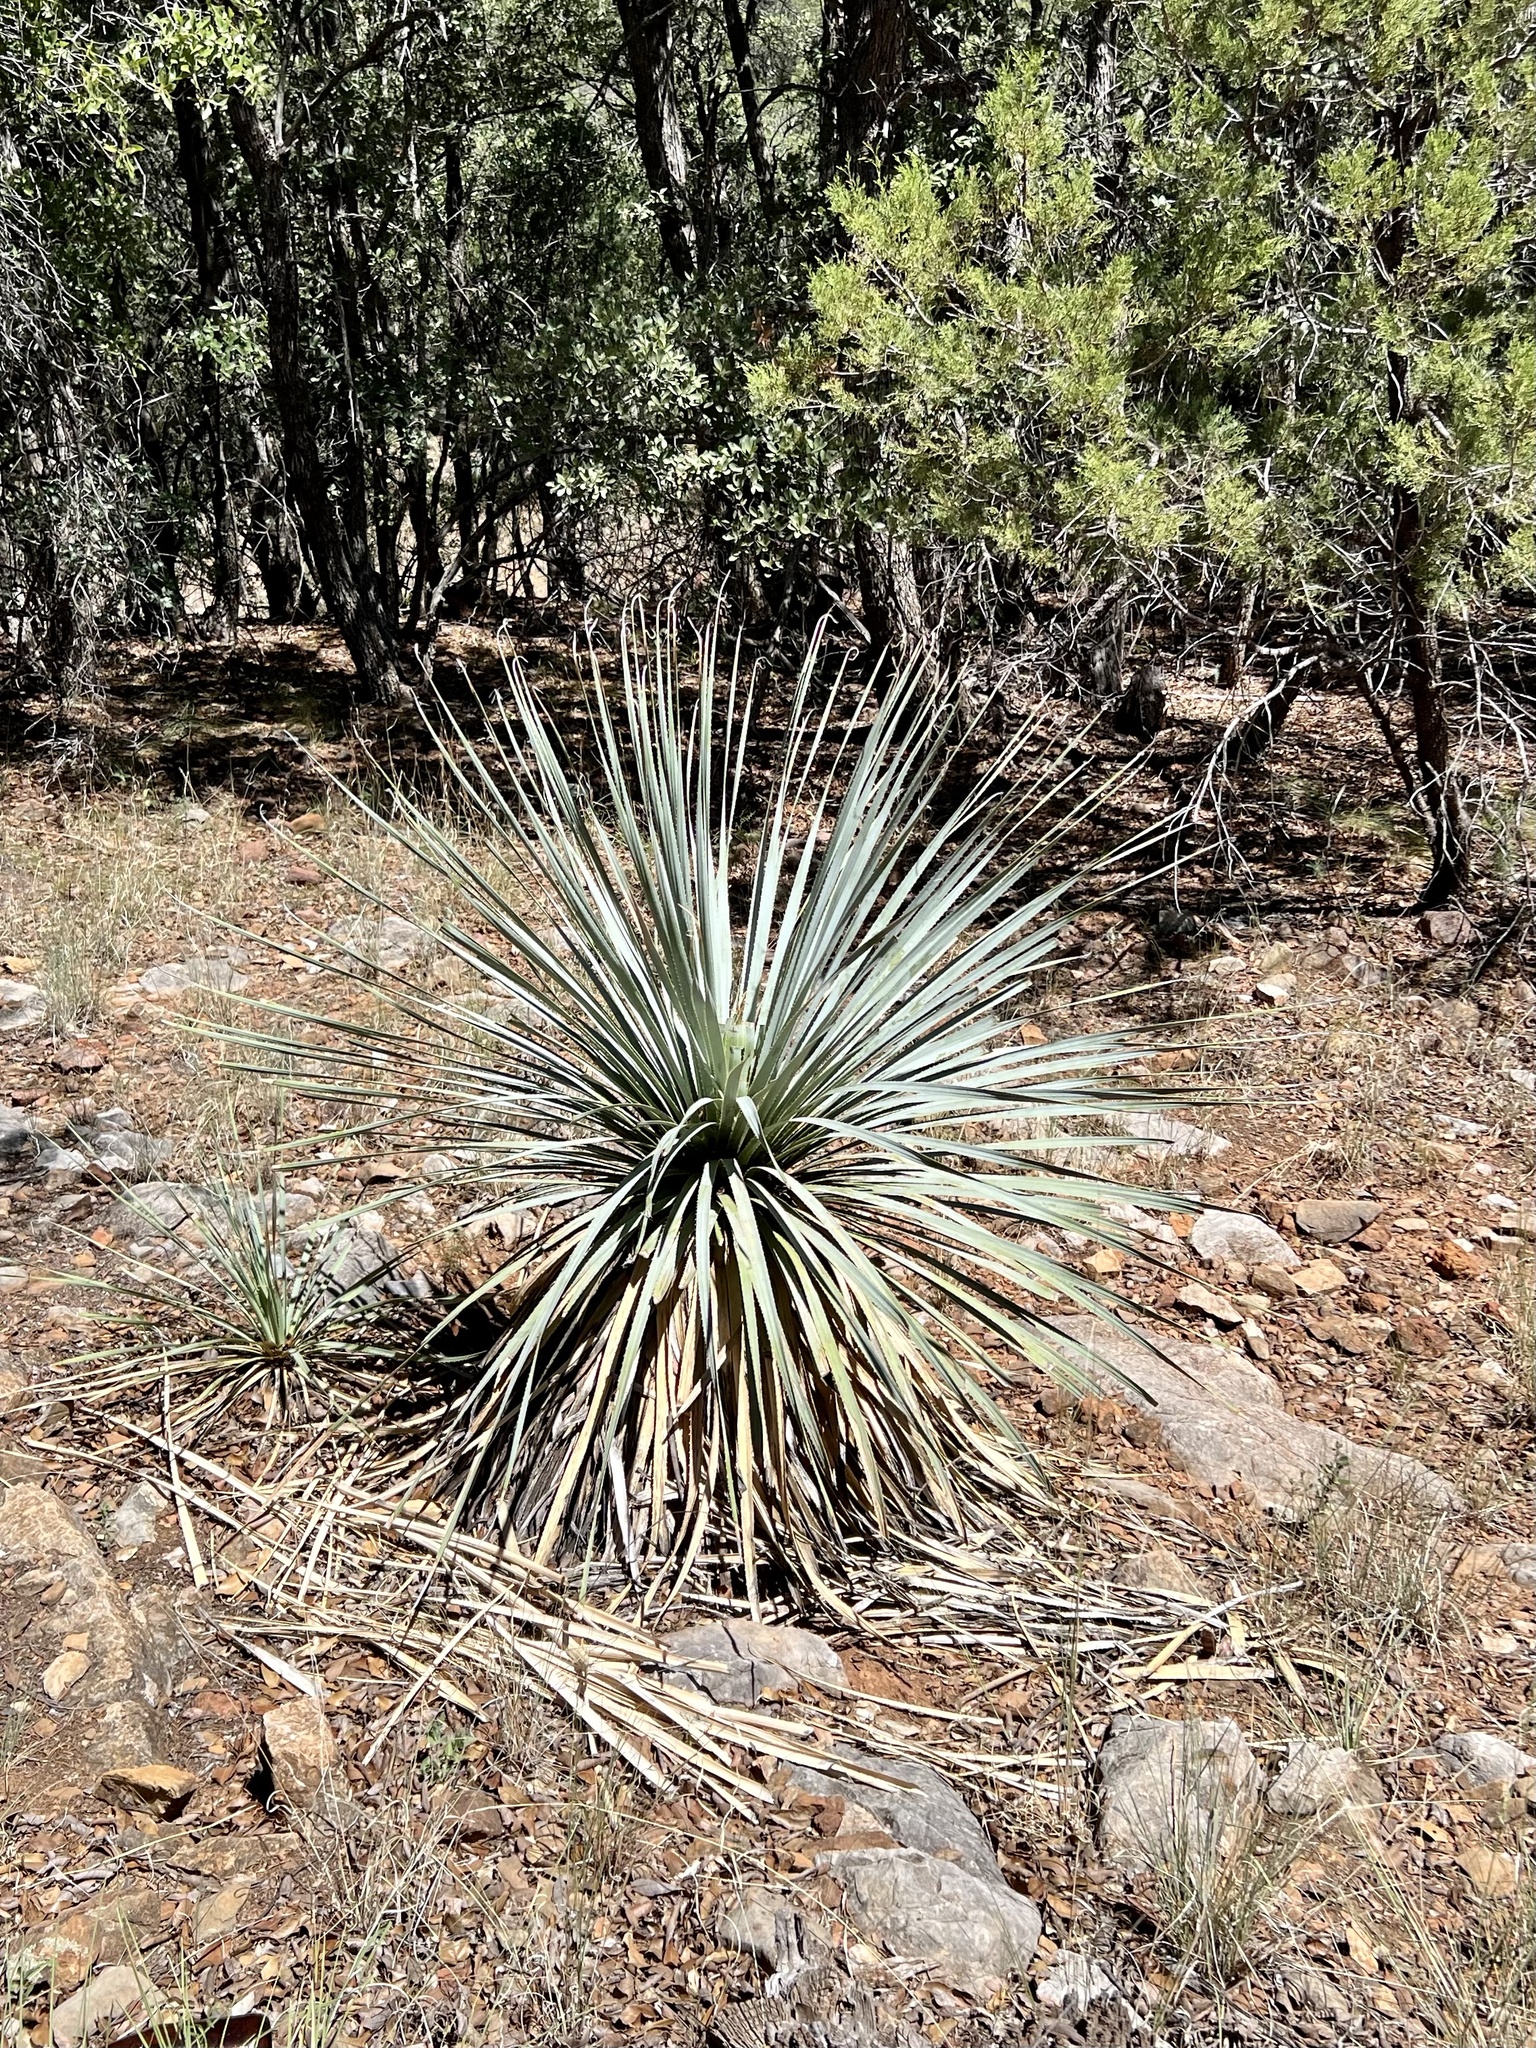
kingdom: Plantae
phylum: Tracheophyta
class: Liliopsida
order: Asparagales
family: Asparagaceae
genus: Dasylirion
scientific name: Dasylirion wheeleri
